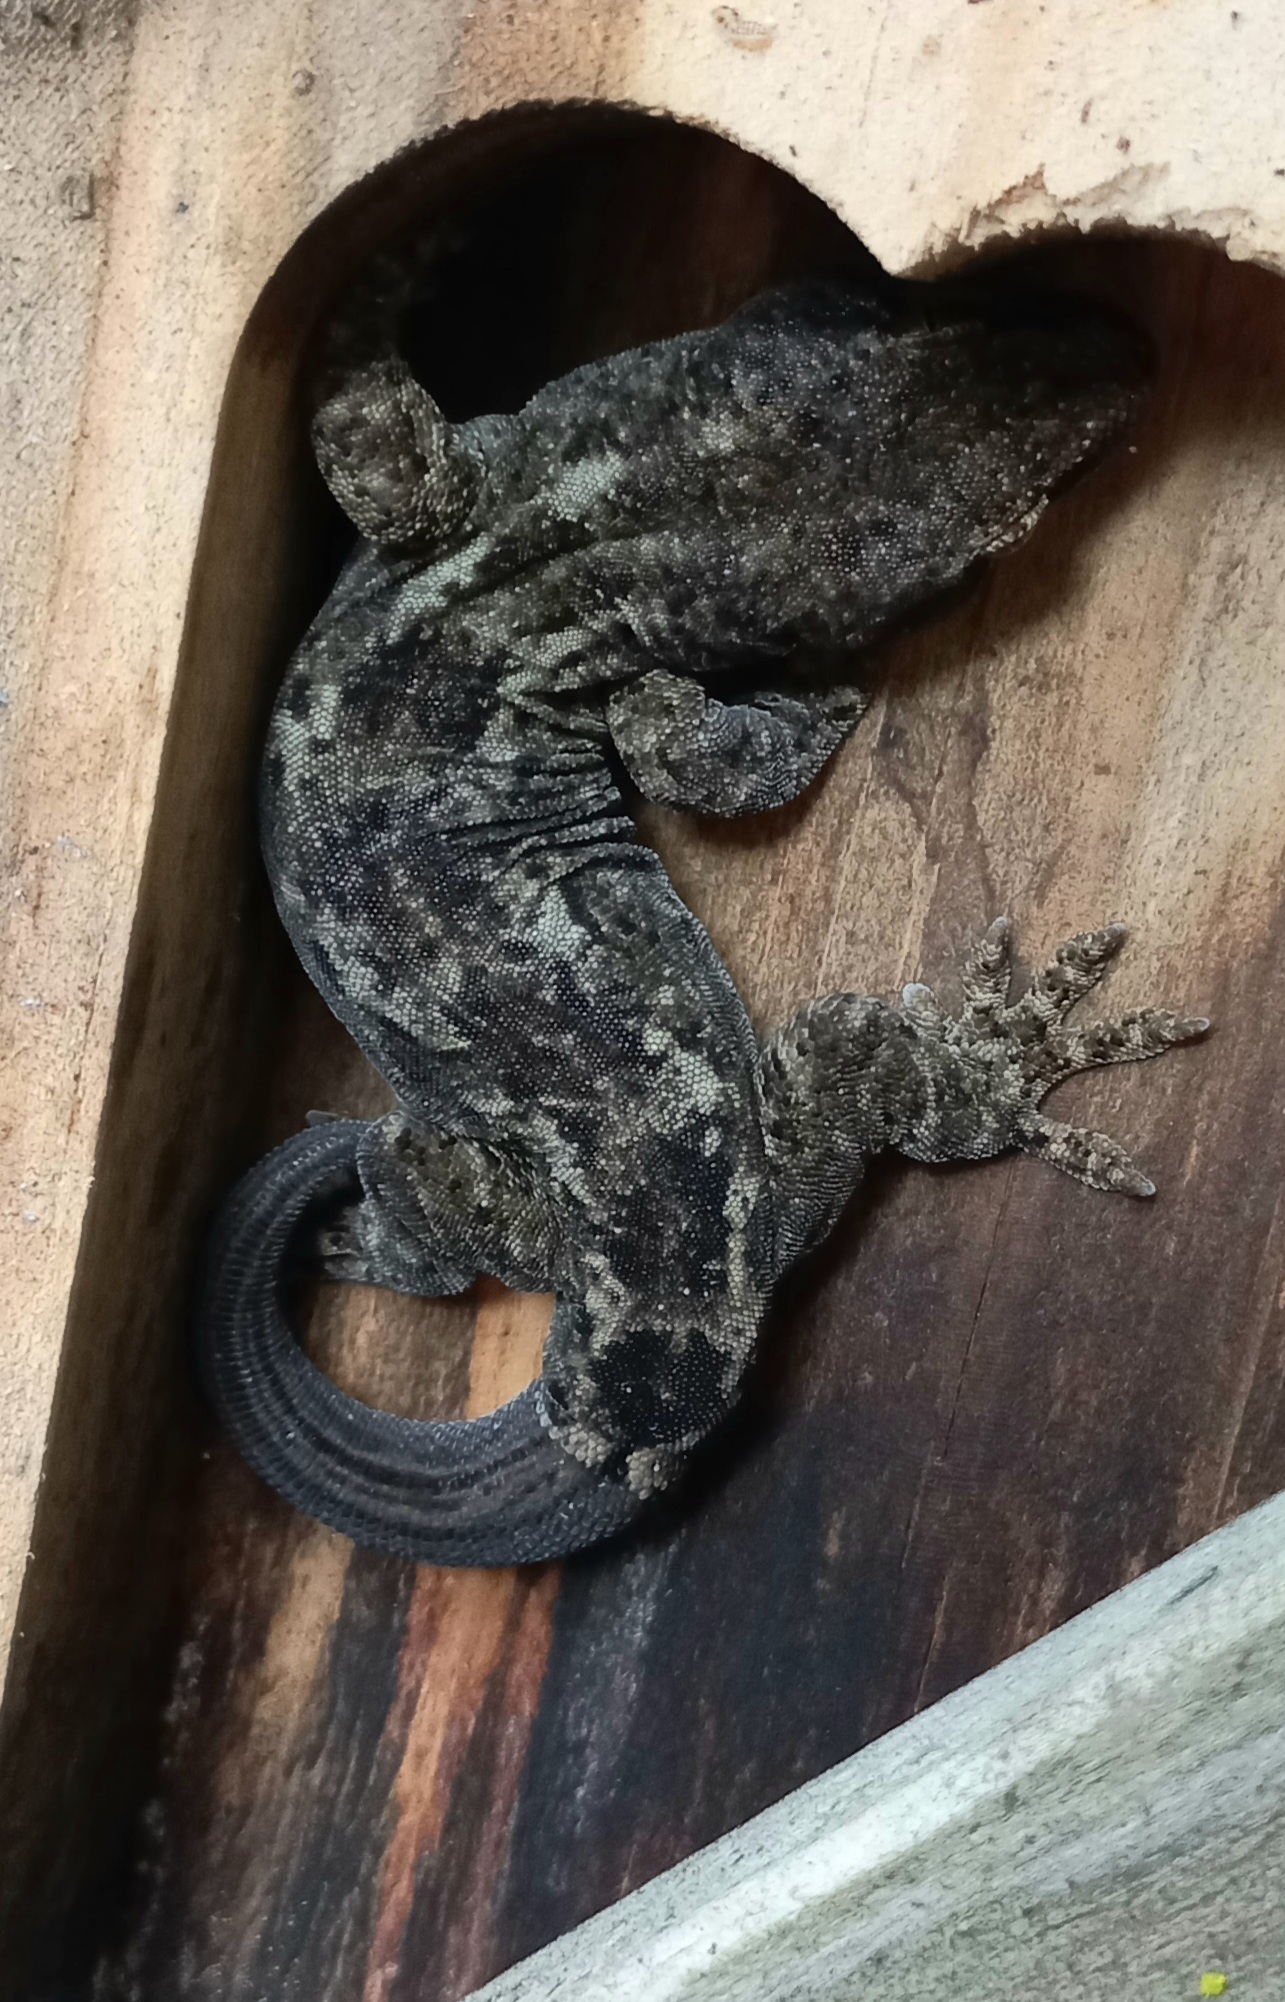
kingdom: Animalia
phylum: Chordata
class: Squamata
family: Diplodactylidae
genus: Woodworthia
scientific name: Woodworthia brunnea
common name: Canterbury gecko
